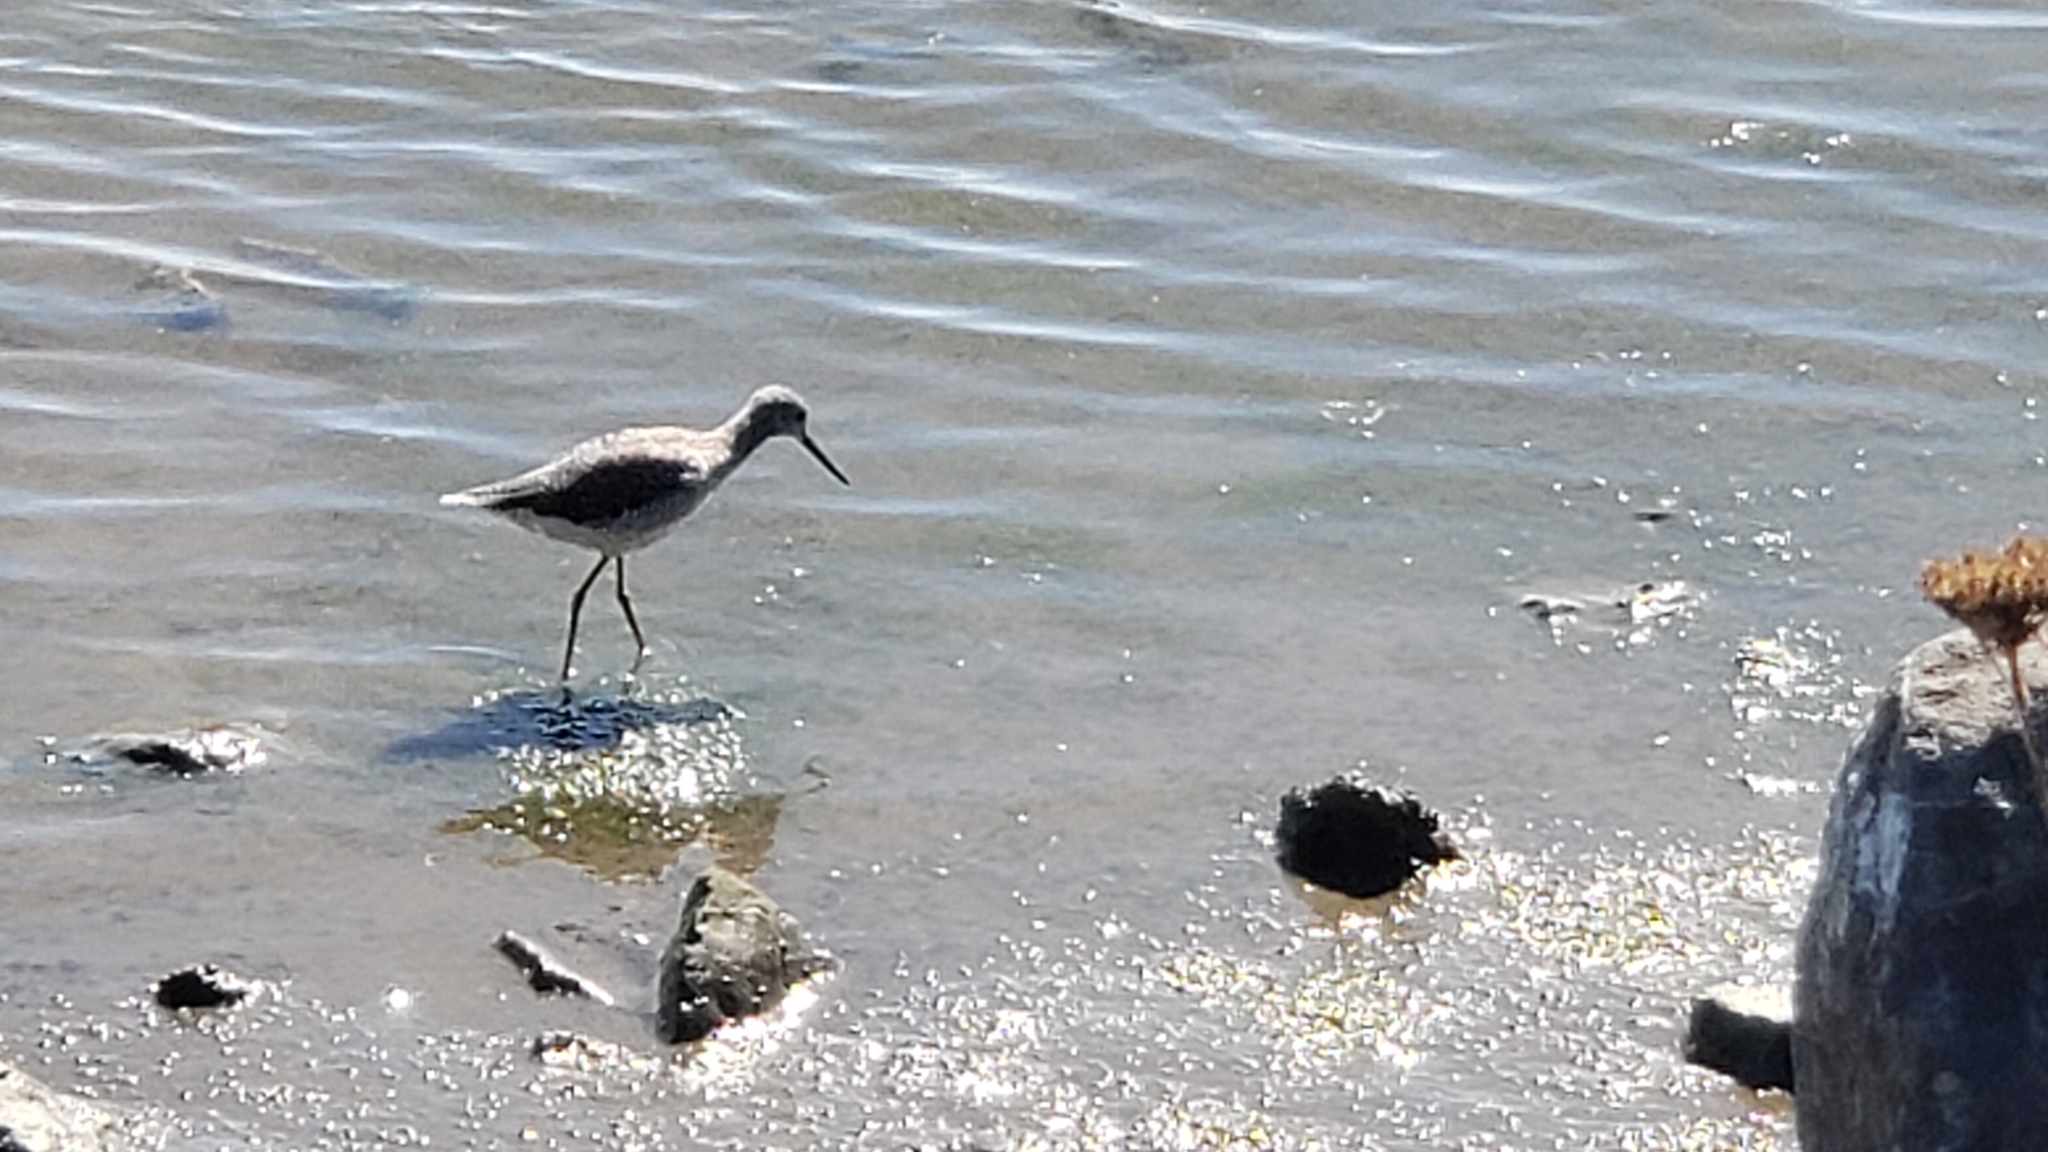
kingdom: Animalia
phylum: Chordata
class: Aves
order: Charadriiformes
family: Scolopacidae
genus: Tringa
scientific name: Tringa melanoleuca
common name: Greater yellowlegs
